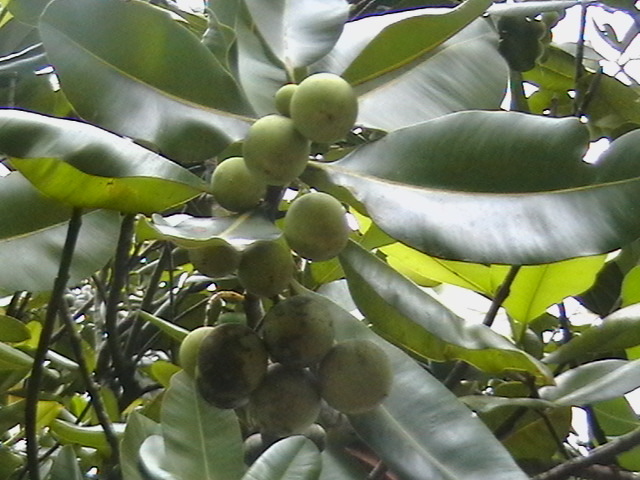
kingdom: Plantae
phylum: Tracheophyta
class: Magnoliopsida
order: Malpighiales
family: Calophyllaceae
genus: Calophyllum
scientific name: Calophyllum inophyllum
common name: Alexandrian laurel
